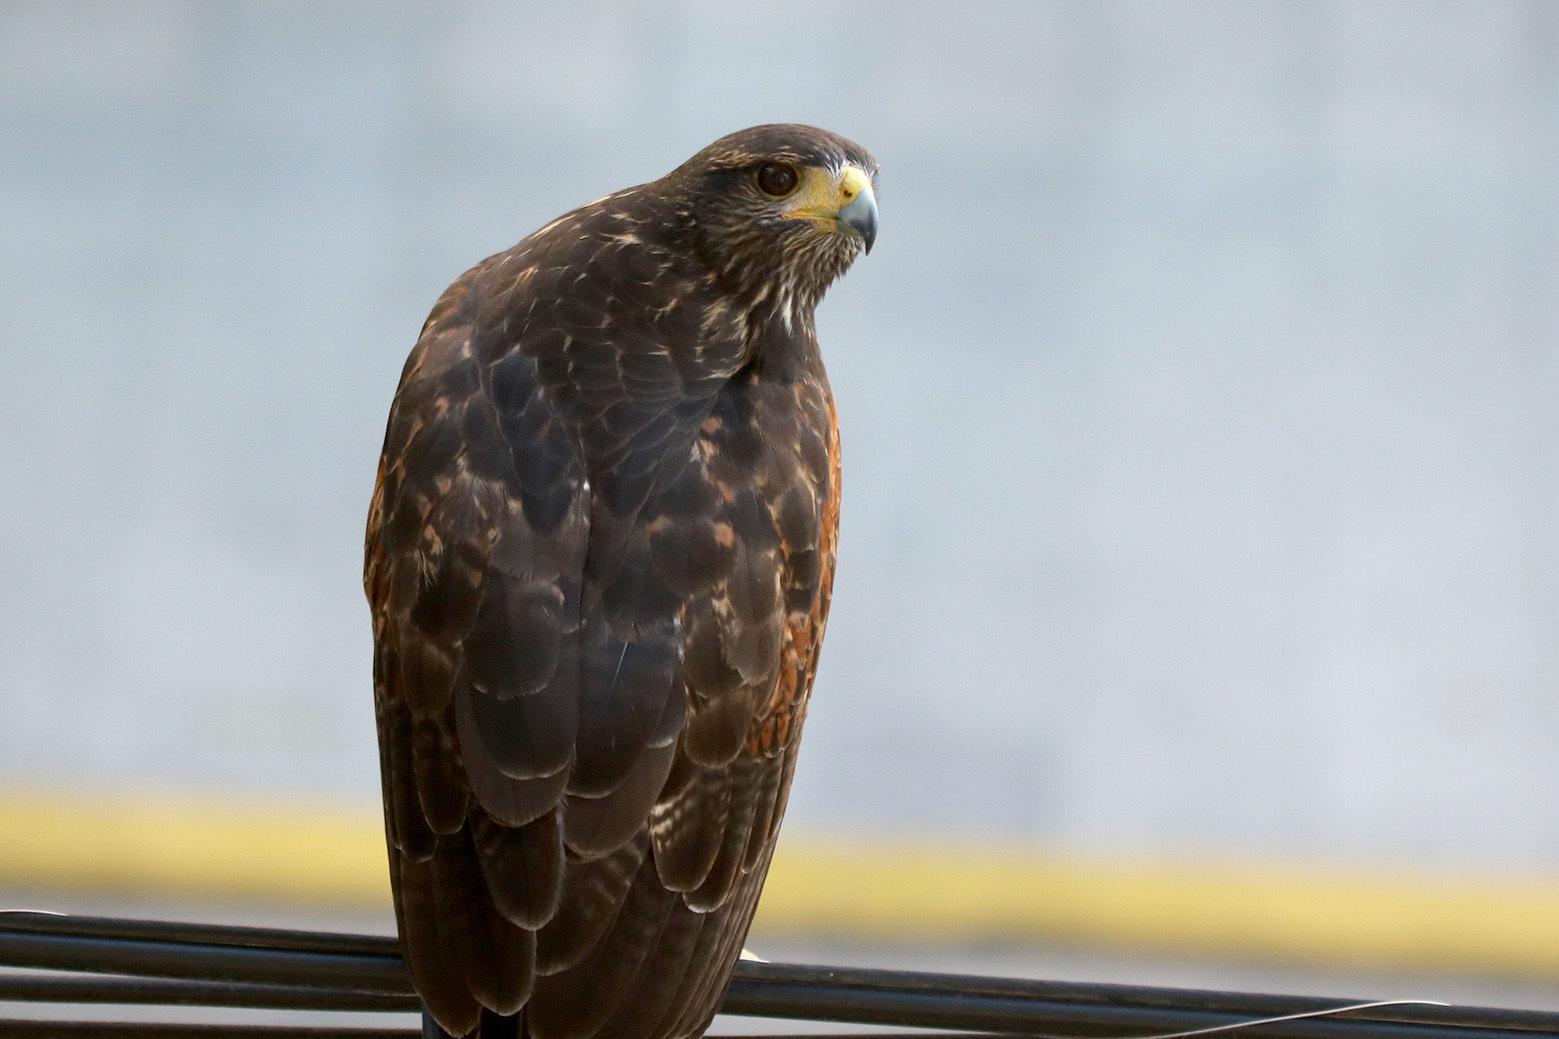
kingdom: Animalia
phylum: Chordata
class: Aves
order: Accipitriformes
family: Accipitridae
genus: Parabuteo
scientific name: Parabuteo unicinctus
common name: Harris's hawk
